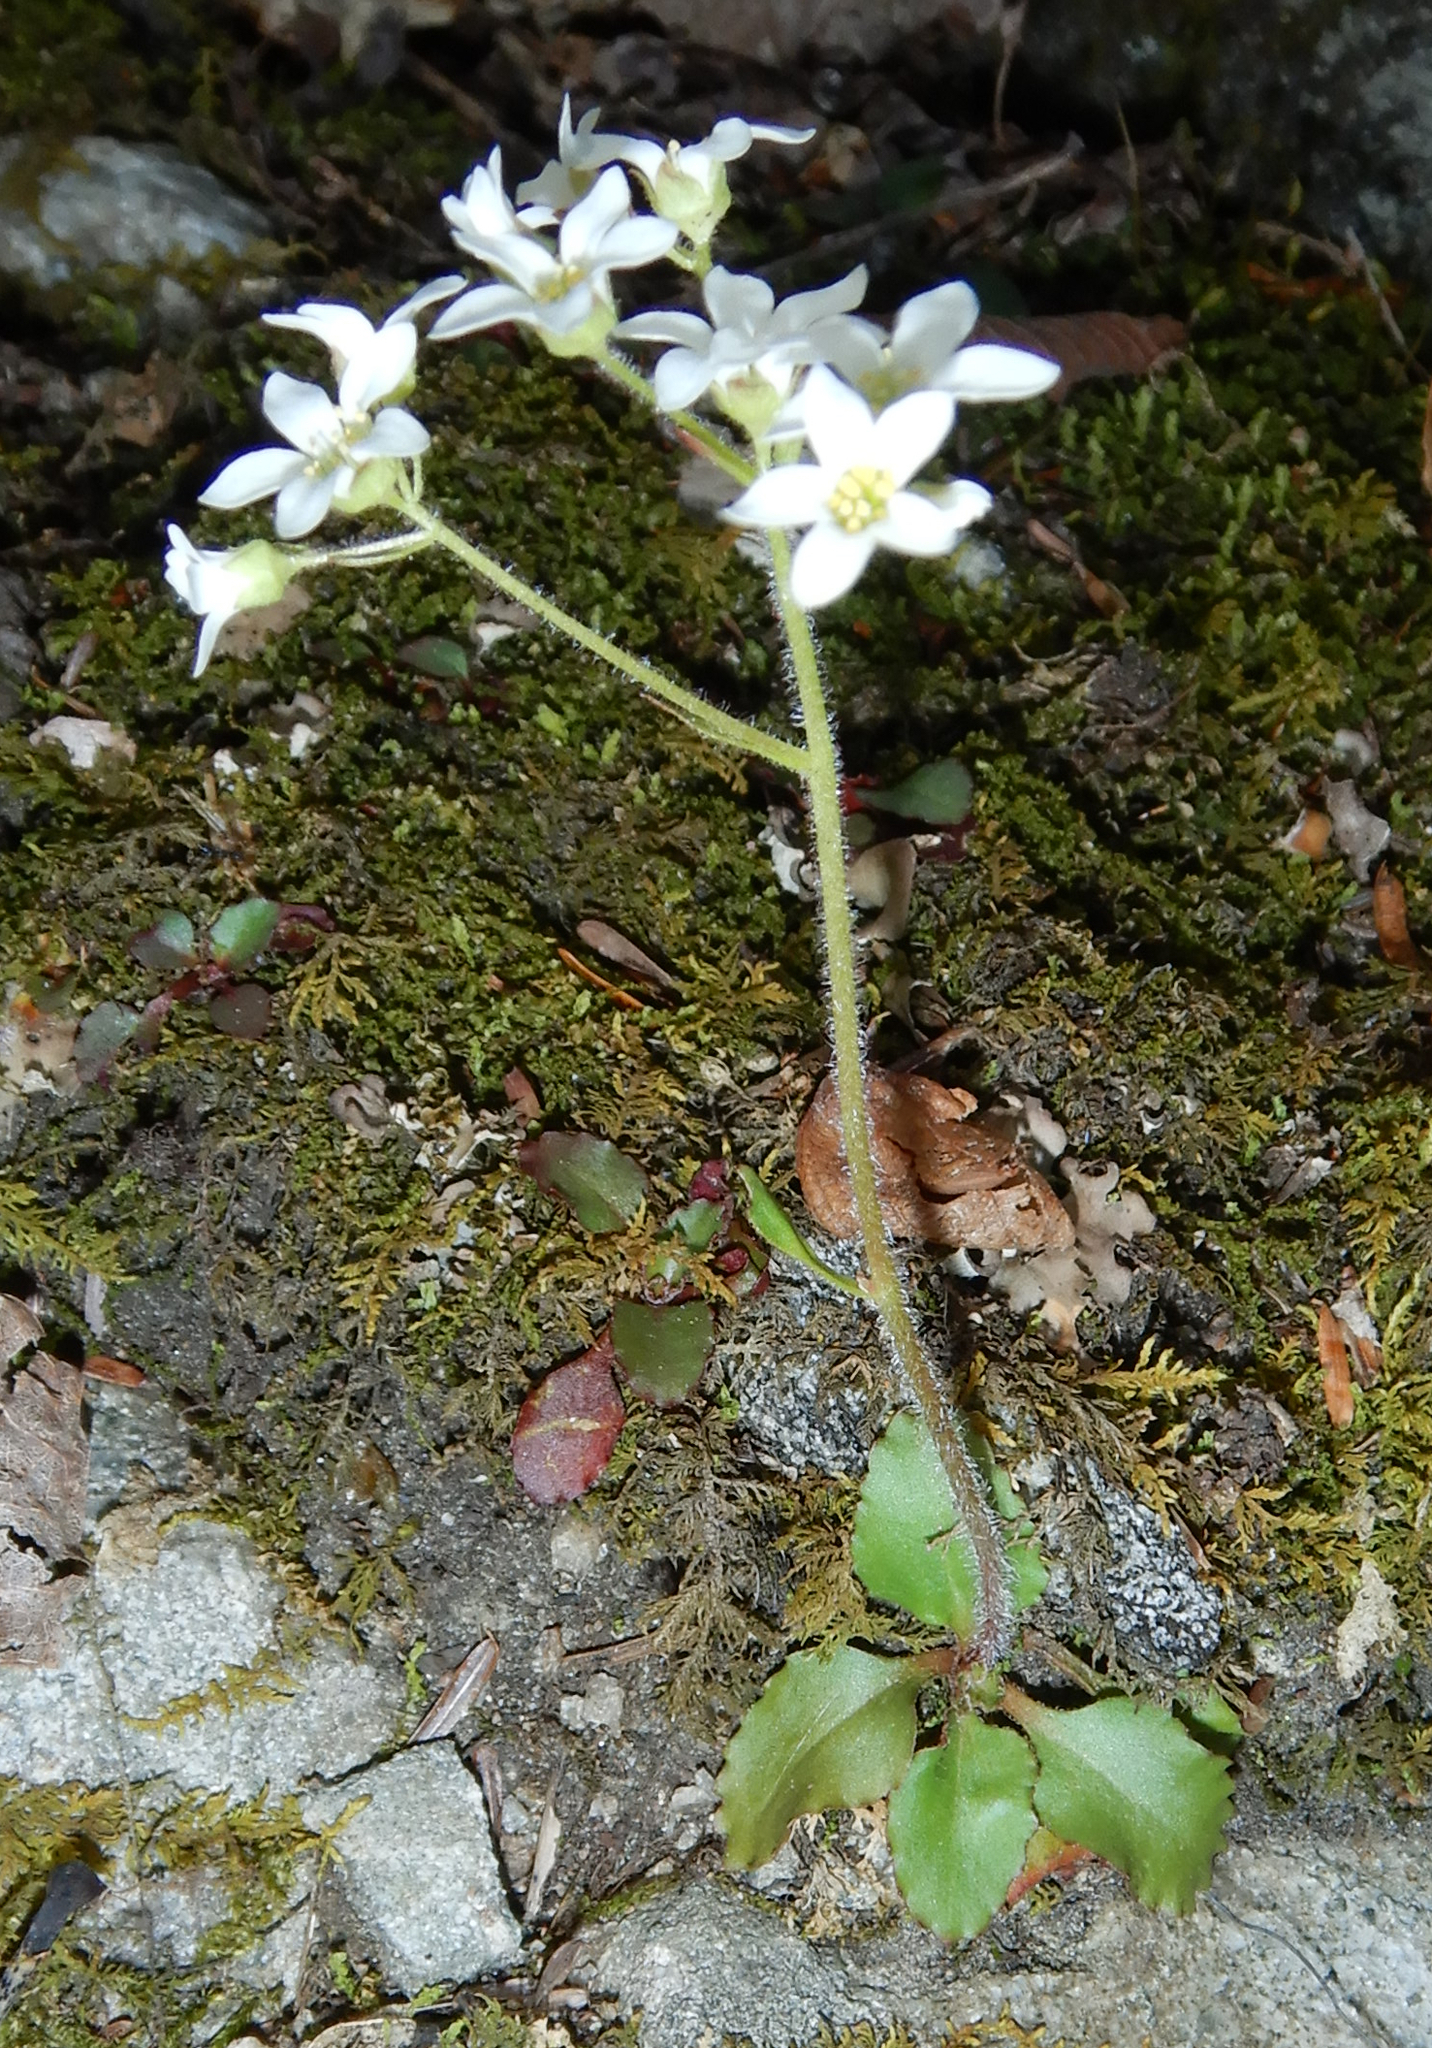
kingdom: Plantae
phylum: Tracheophyta
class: Magnoliopsida
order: Saxifragales
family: Saxifragaceae
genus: Micranthes
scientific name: Micranthes virginiensis
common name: Early saxifrage
